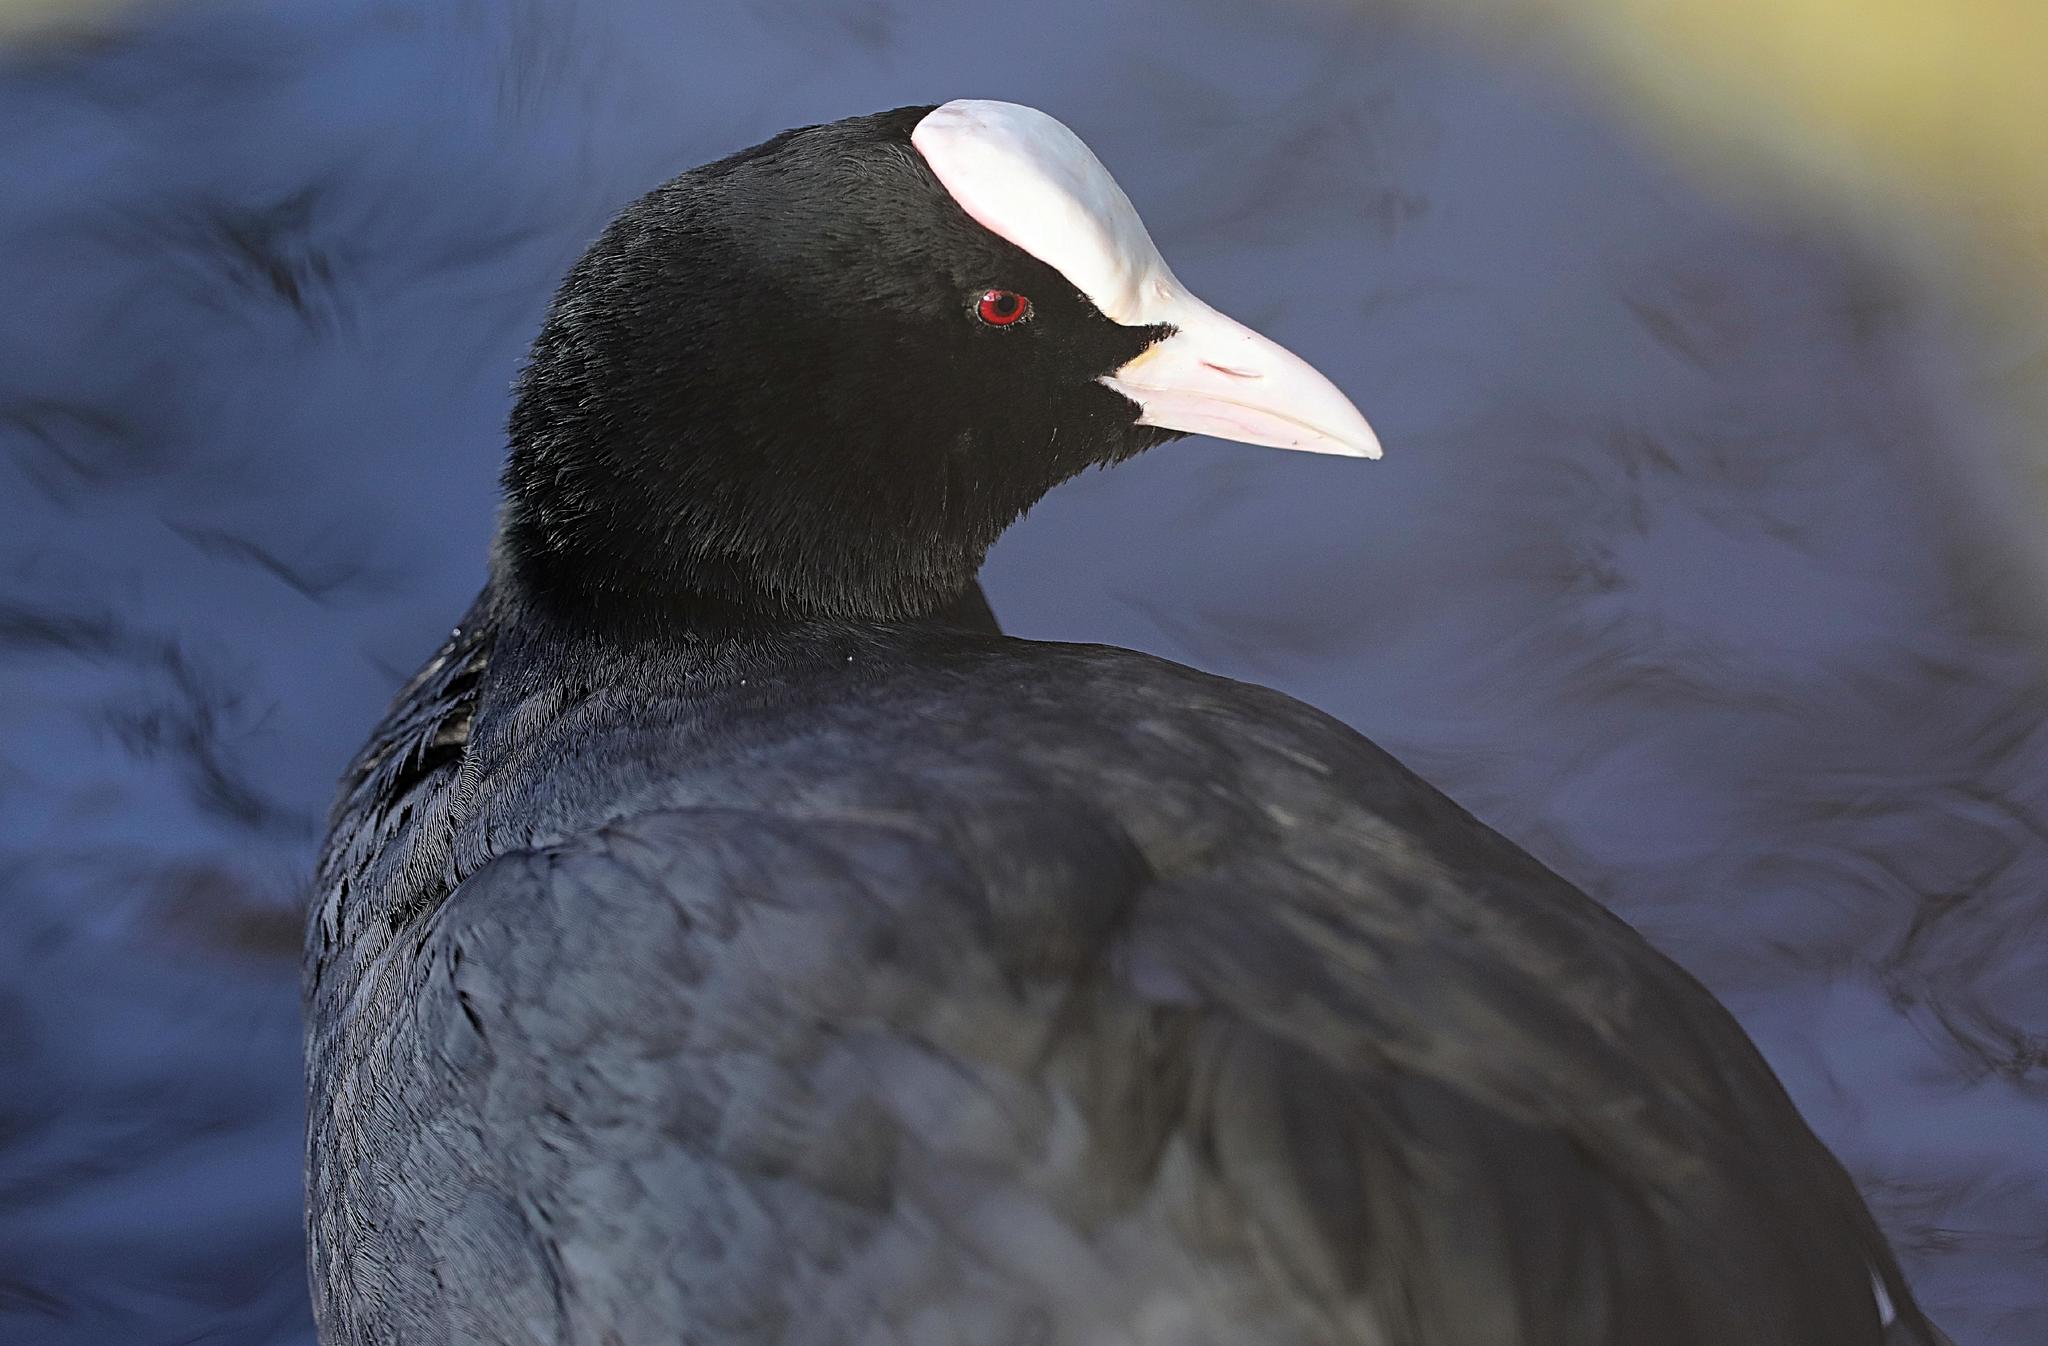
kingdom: Animalia
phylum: Chordata
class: Aves
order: Gruiformes
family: Rallidae
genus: Fulica
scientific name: Fulica atra
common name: Eurasian coot
